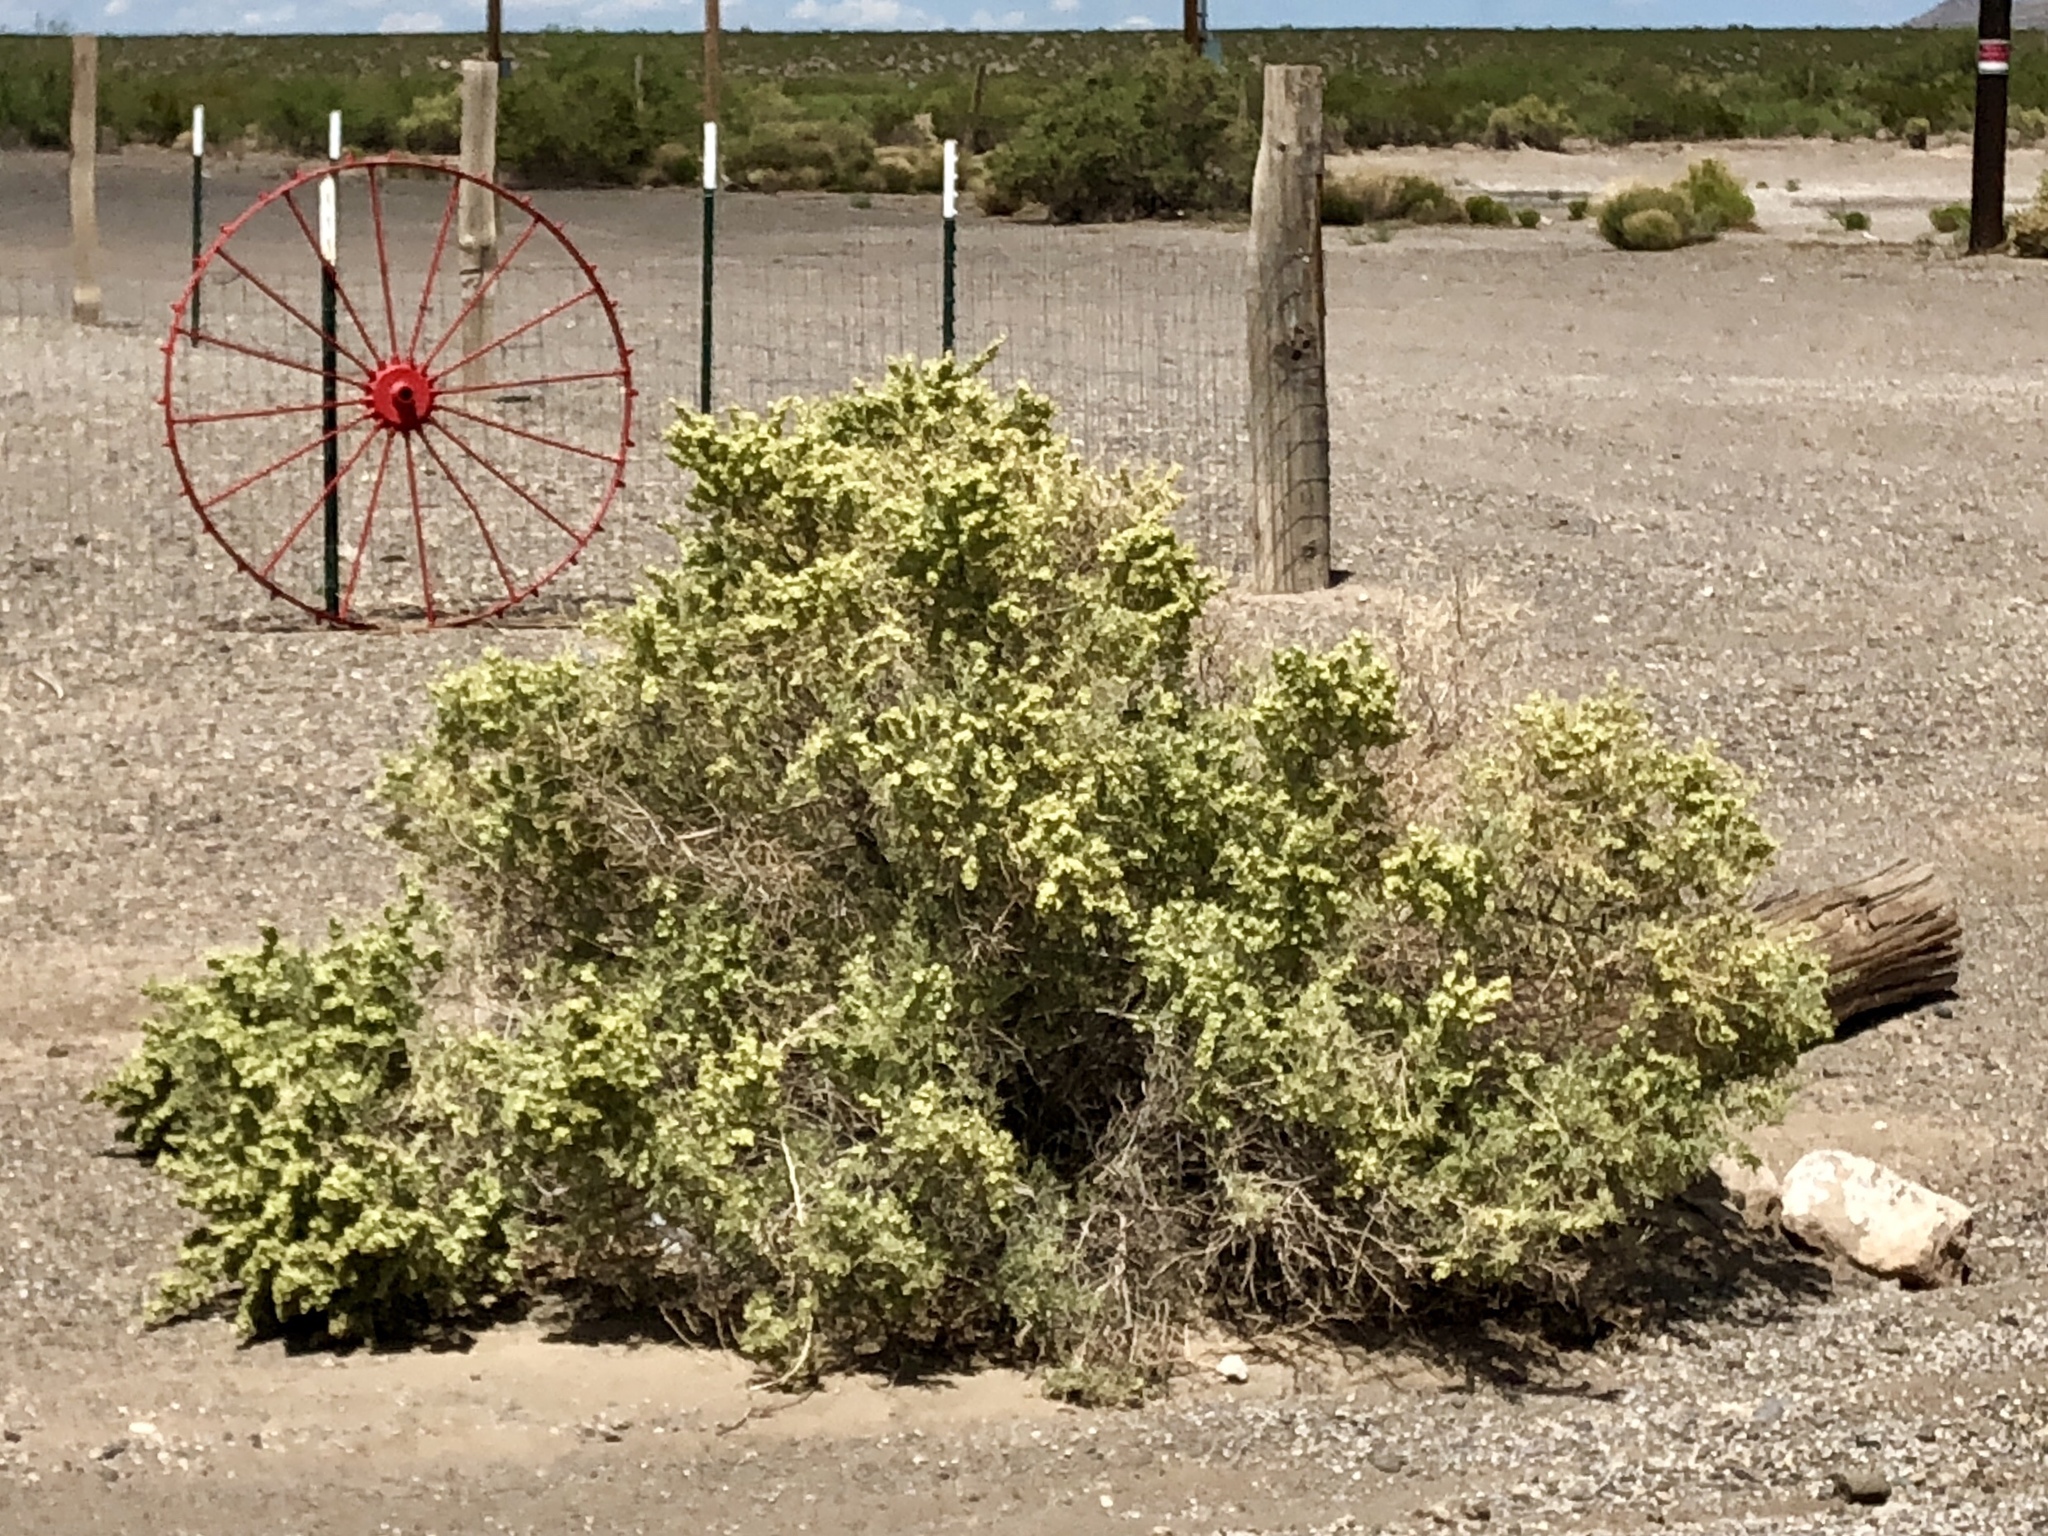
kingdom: Plantae
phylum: Tracheophyta
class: Magnoliopsida
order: Caryophyllales
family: Amaranthaceae
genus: Atriplex
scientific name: Atriplex canescens
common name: Four-wing saltbush
